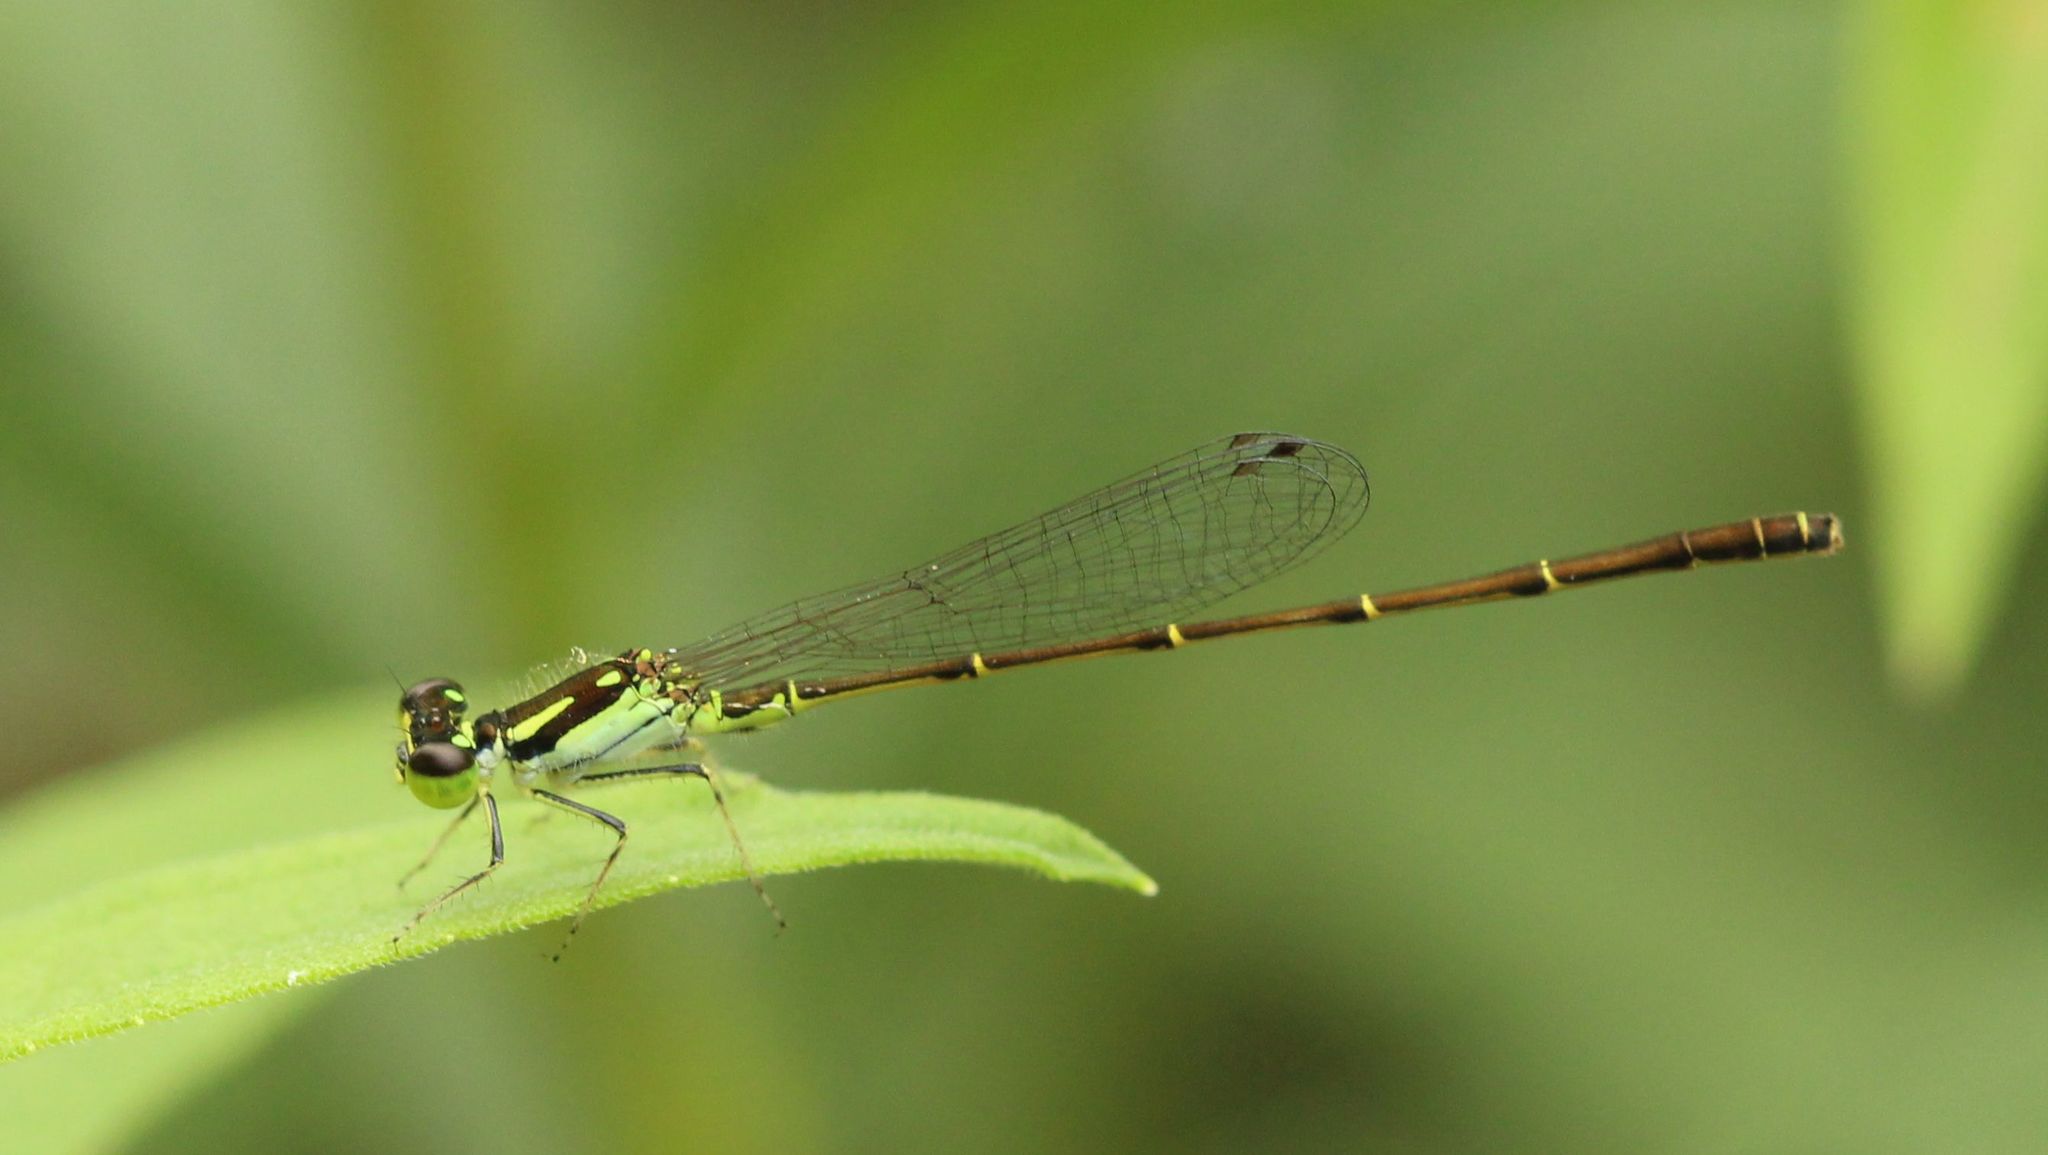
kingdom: Animalia
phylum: Arthropoda
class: Insecta
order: Odonata
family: Coenagrionidae
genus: Ischnura
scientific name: Ischnura posita
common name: Fragile forktail
